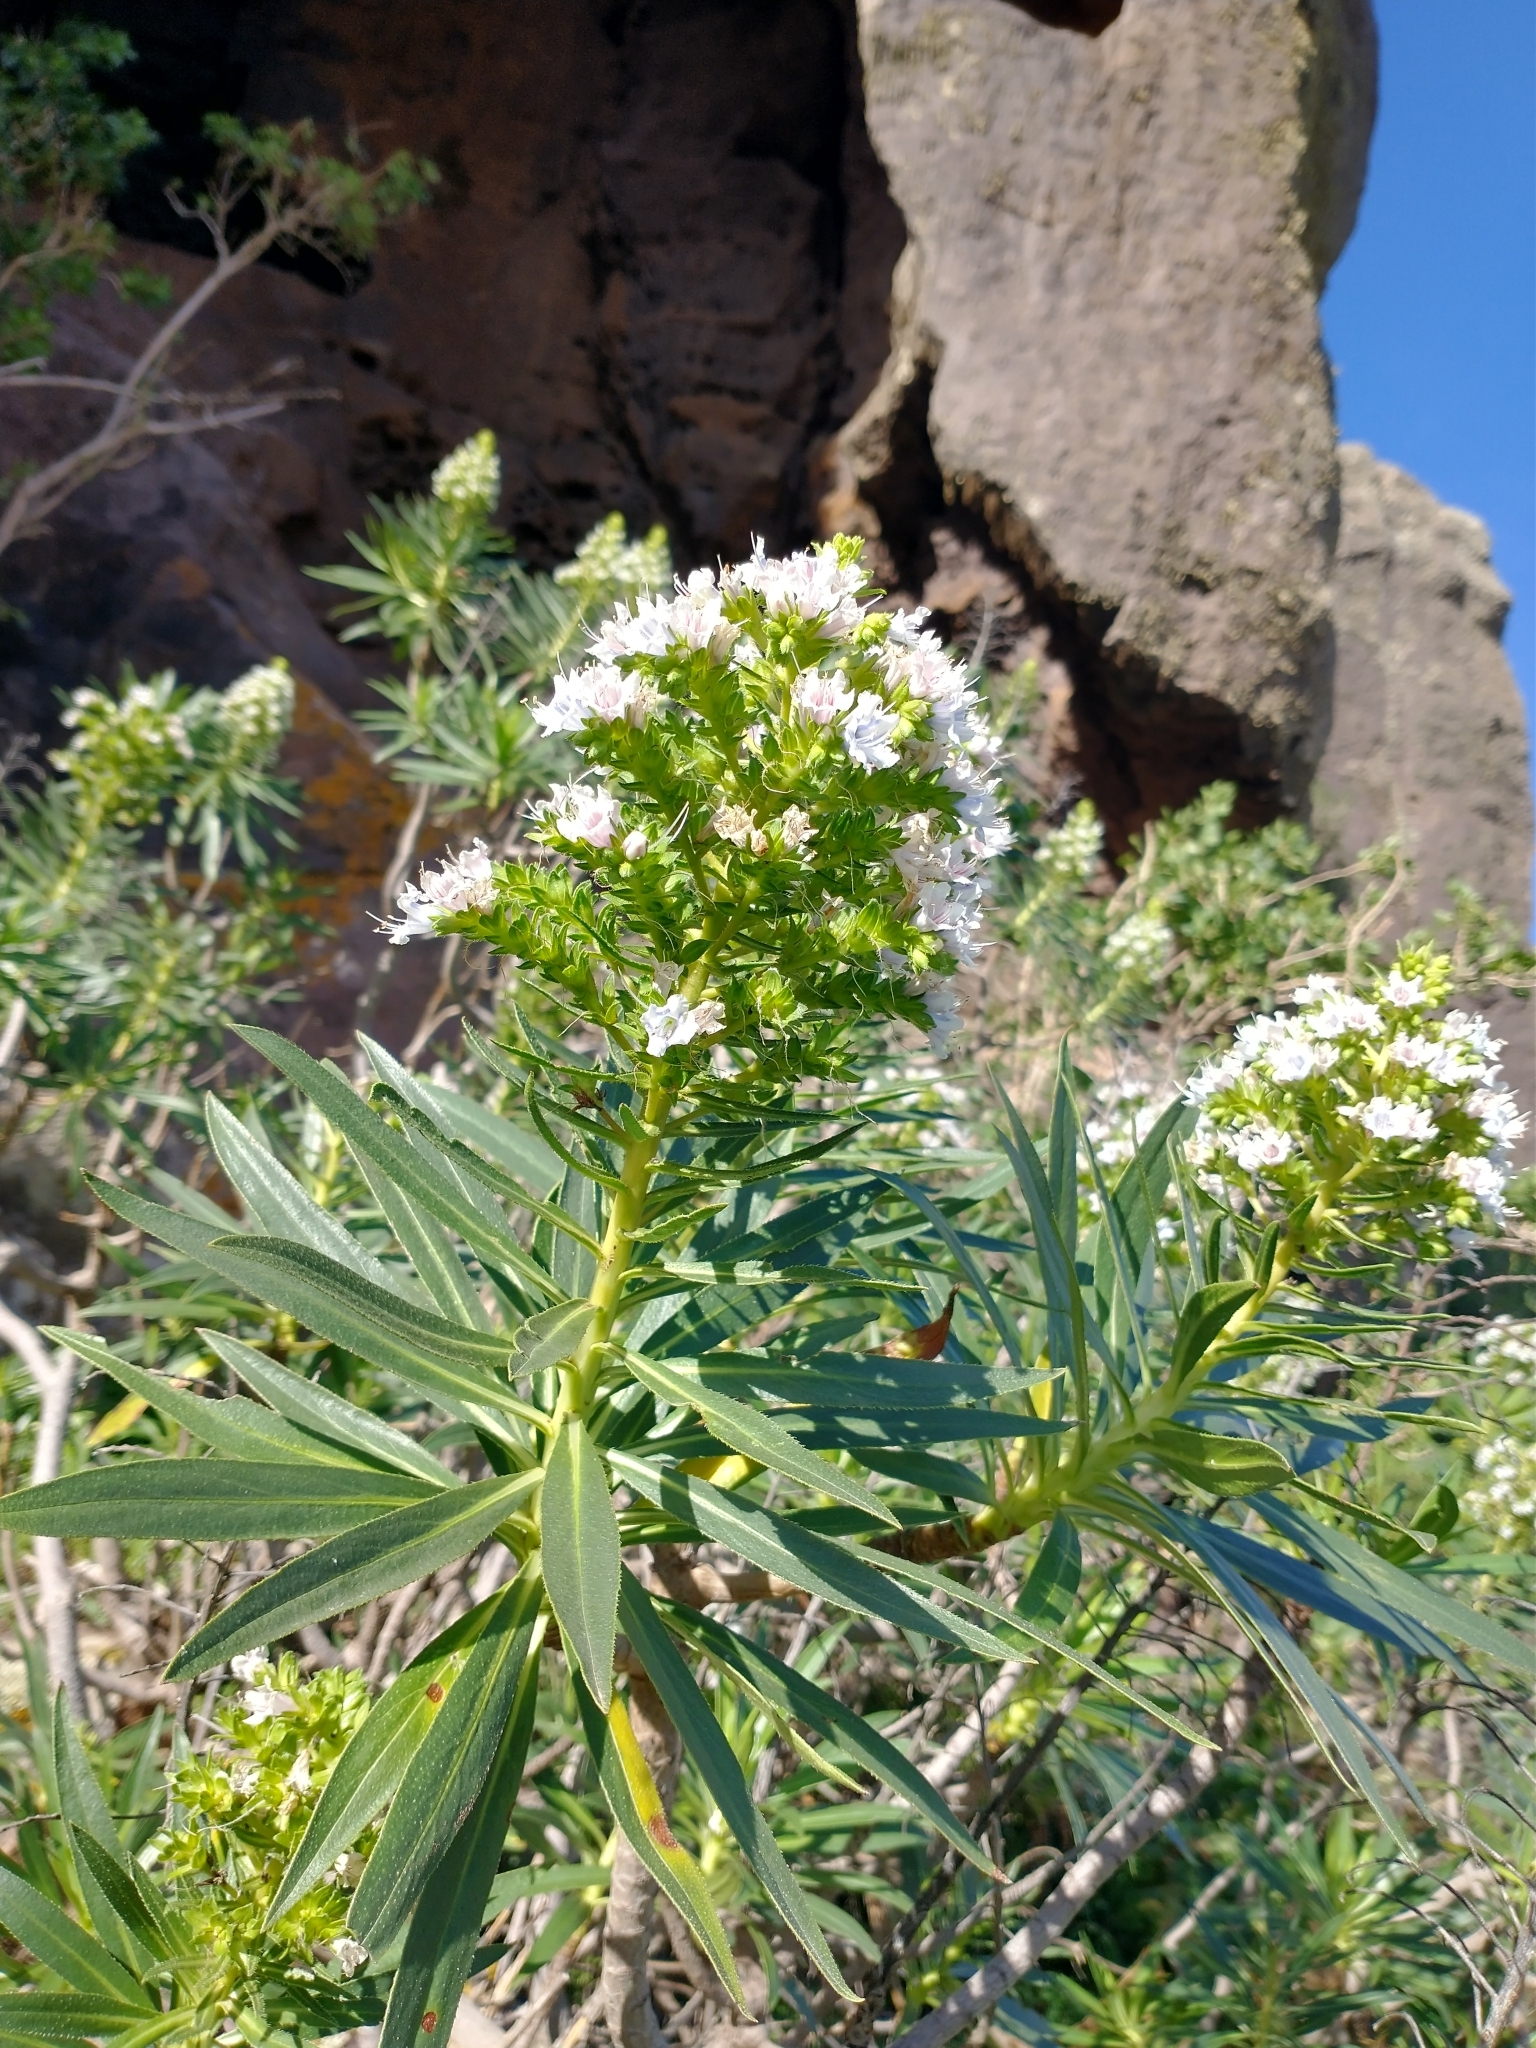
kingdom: Plantae
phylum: Tracheophyta
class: Magnoliopsida
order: Boraginales
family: Boraginaceae
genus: Echium
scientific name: Echium decaisnei
